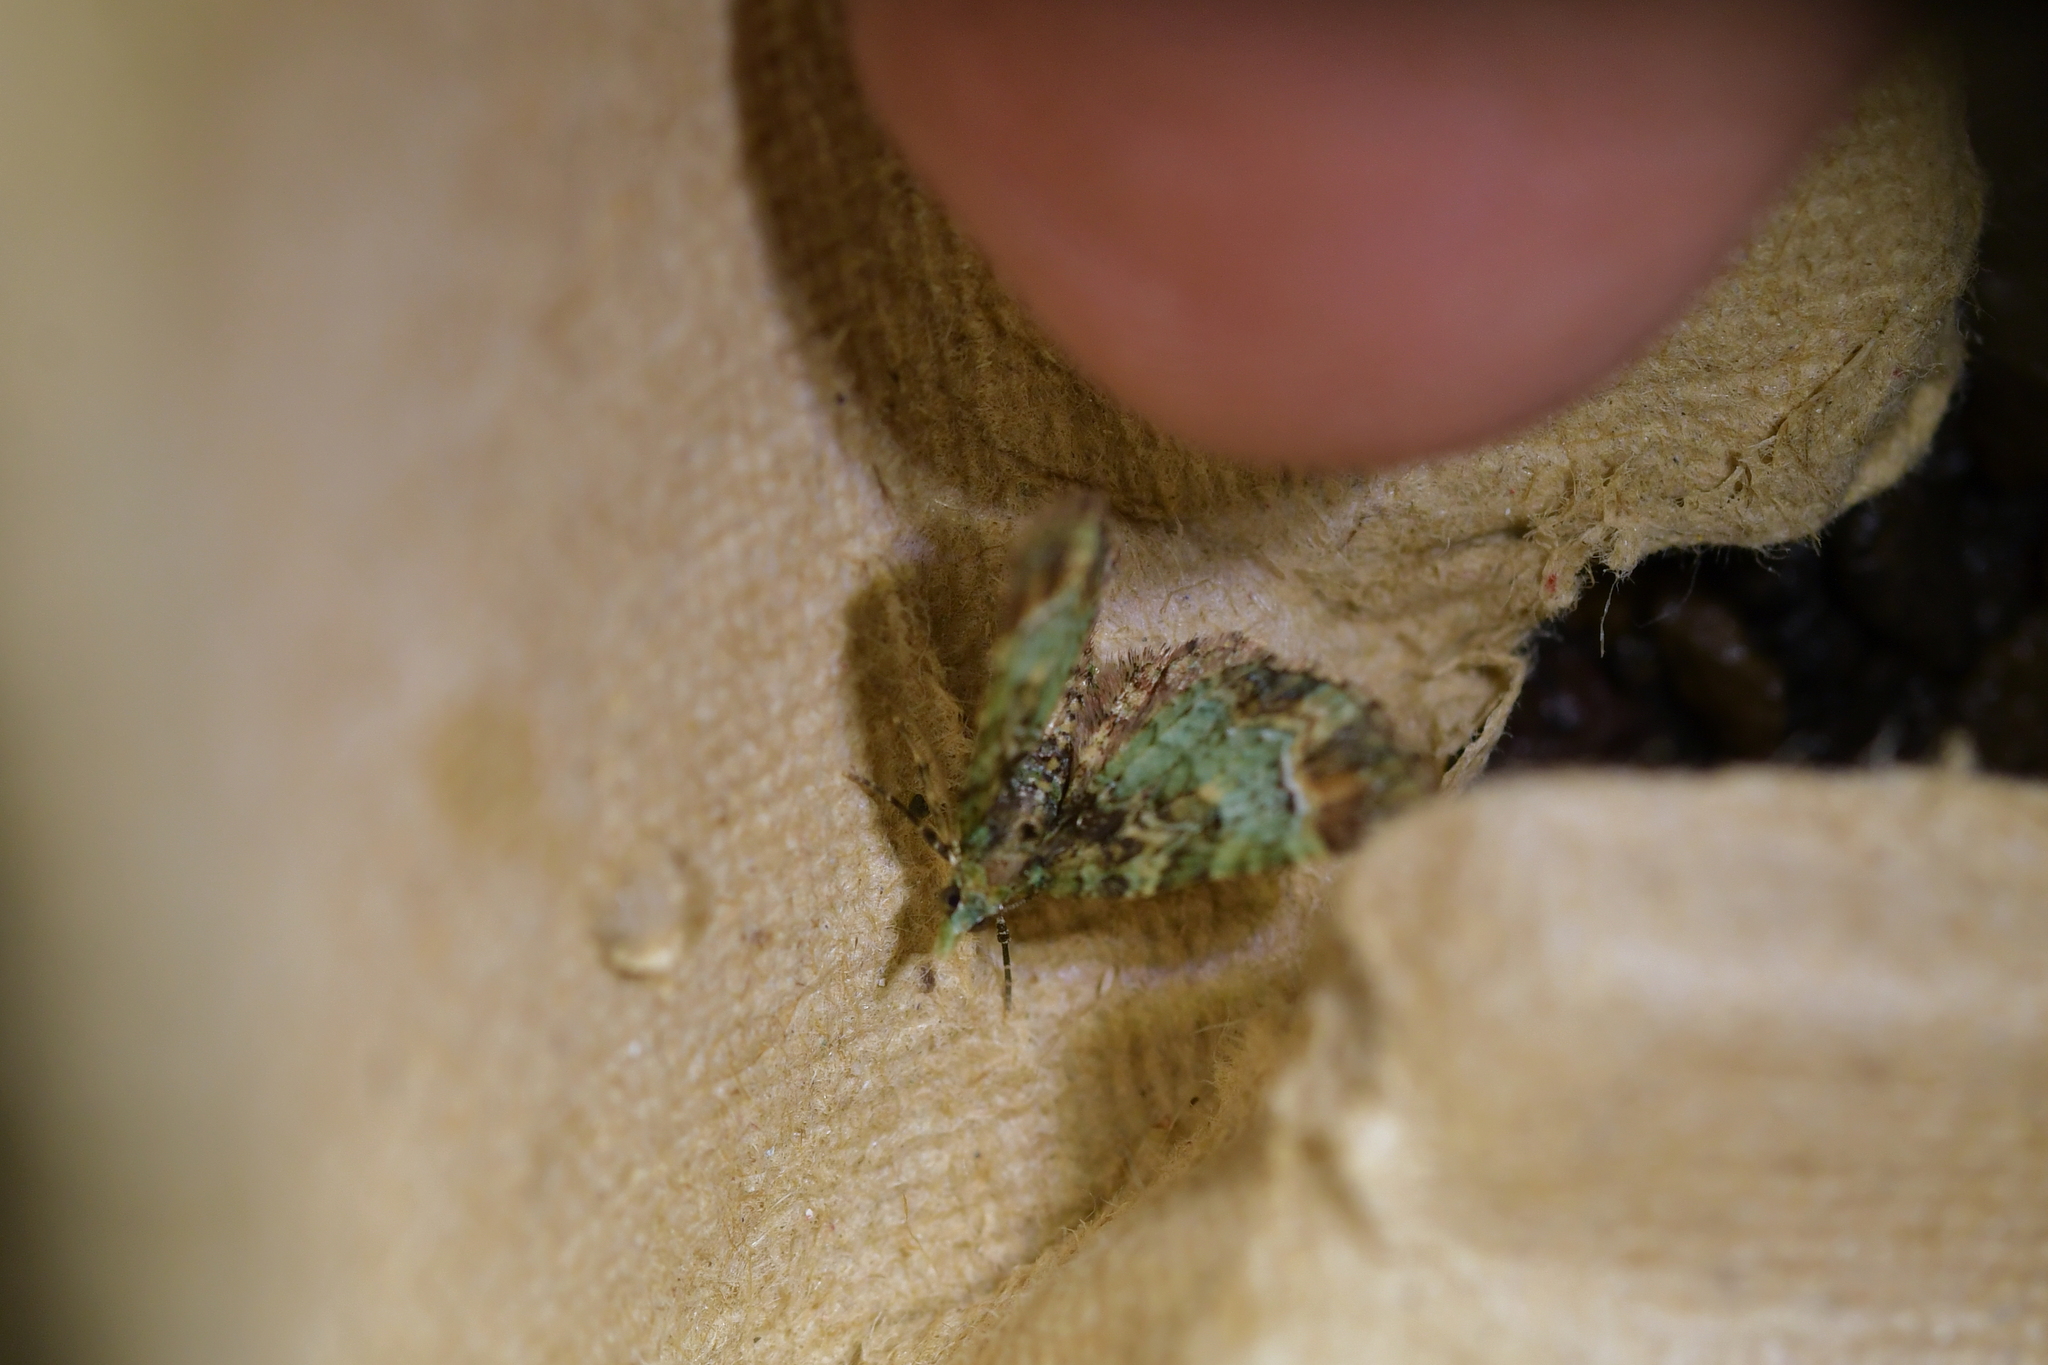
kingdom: Animalia
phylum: Arthropoda
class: Insecta
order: Lepidoptera
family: Geometridae
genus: Pasiphila
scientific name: Pasiphila sandycias
